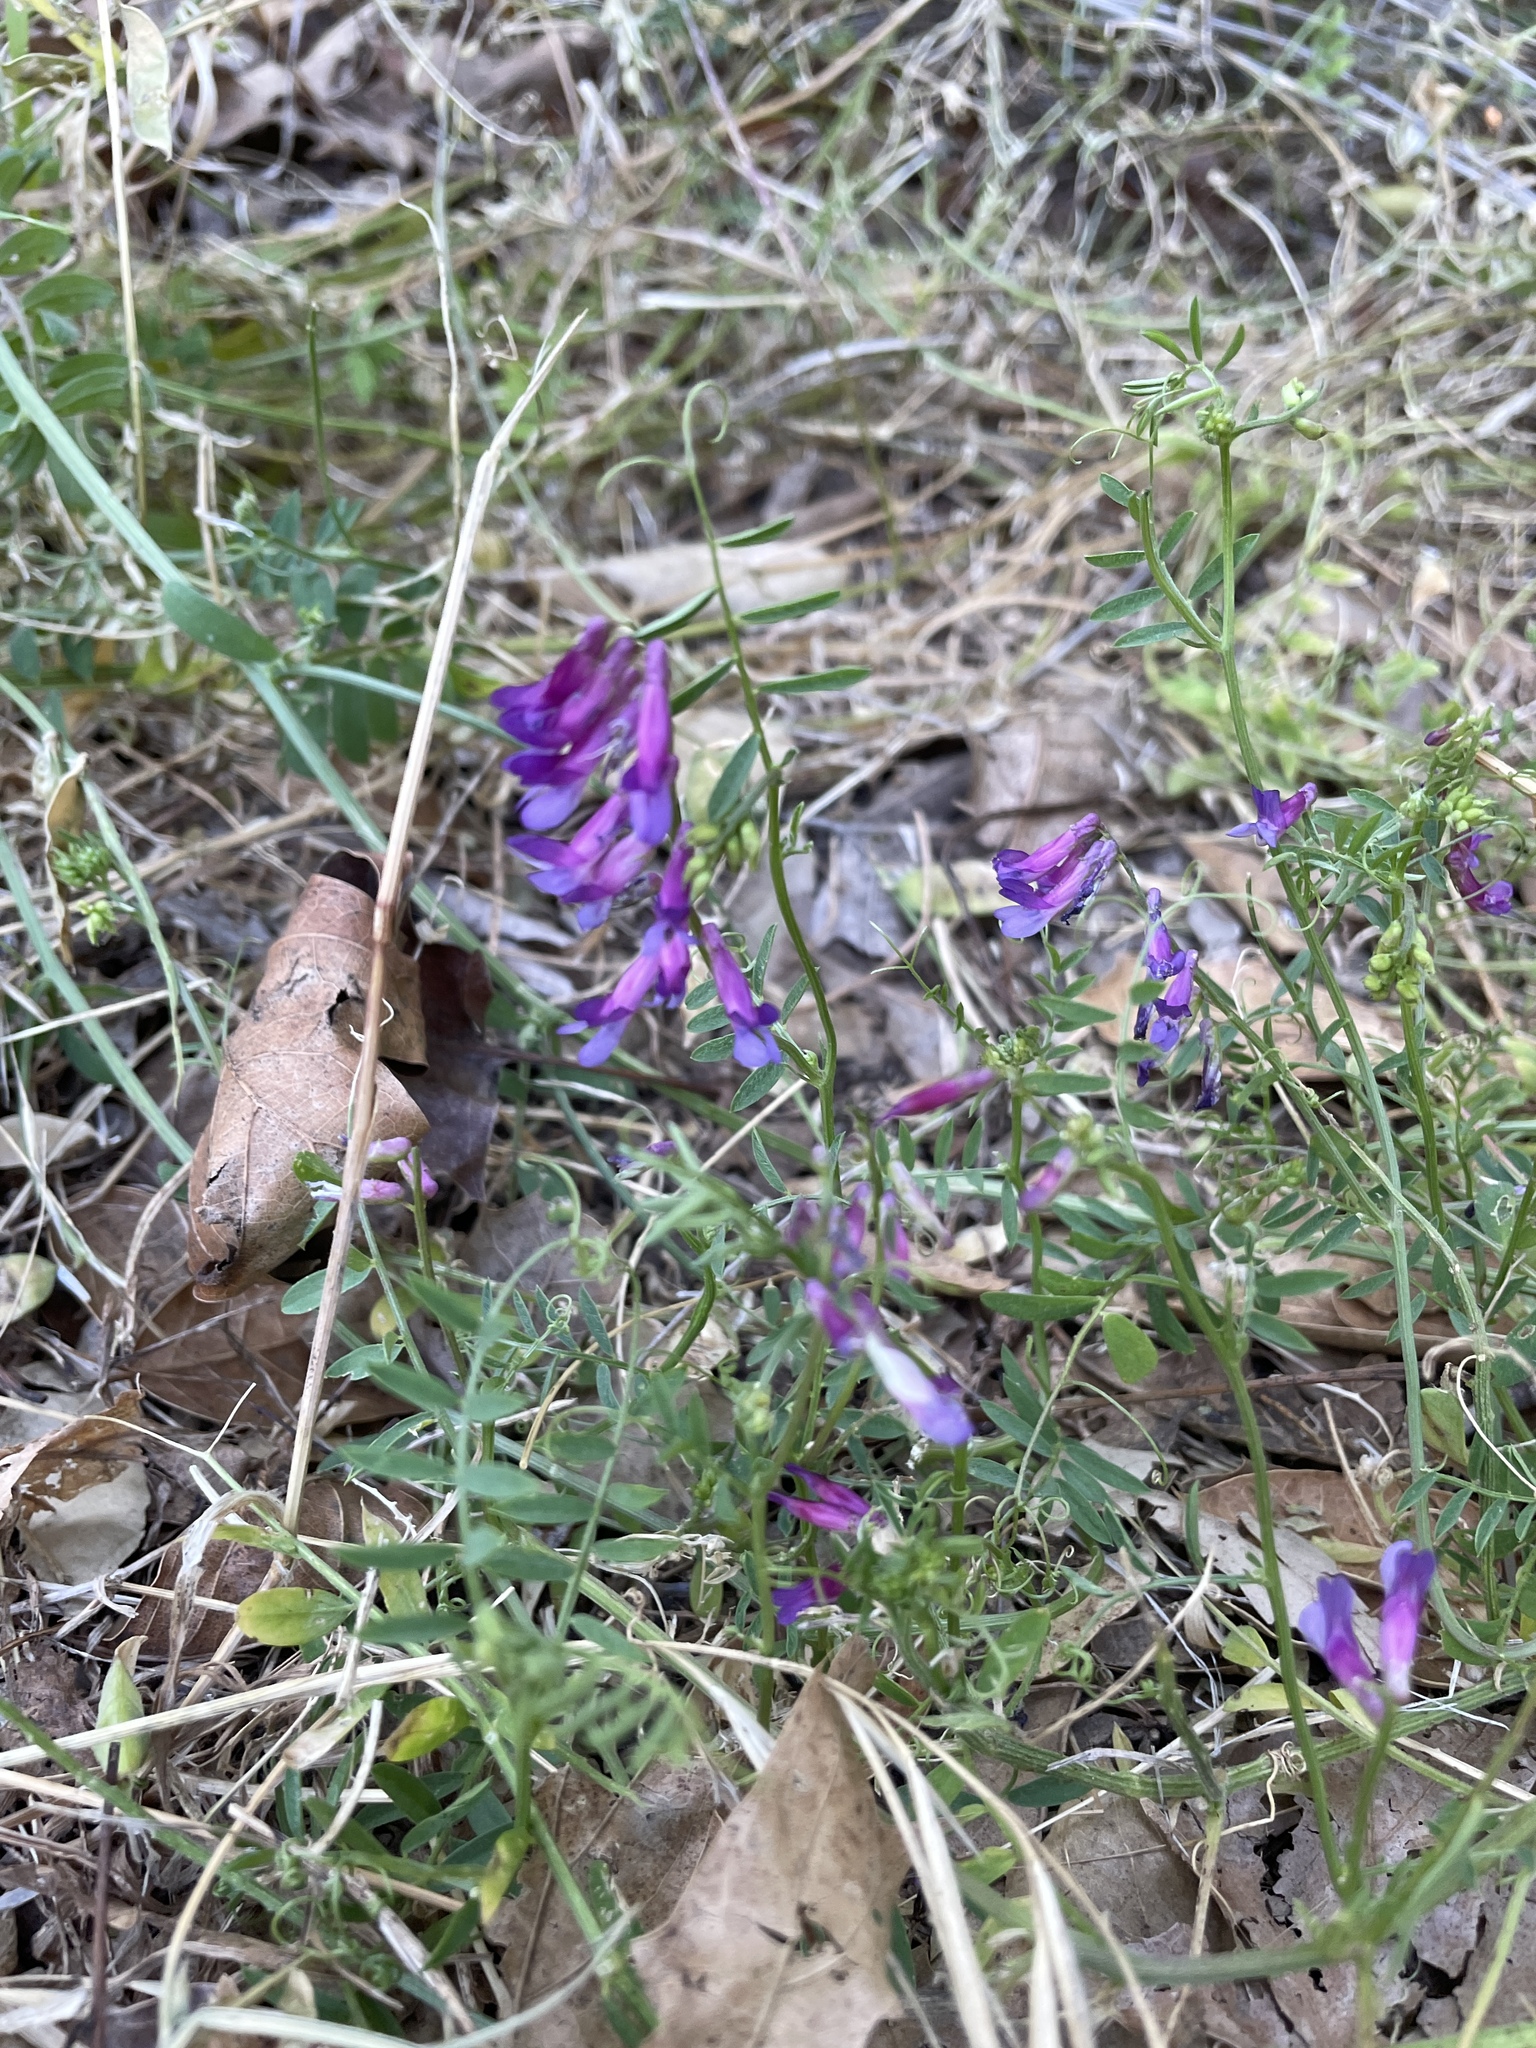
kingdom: Plantae
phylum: Tracheophyta
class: Magnoliopsida
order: Fabales
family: Fabaceae
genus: Vicia
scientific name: Vicia villosa
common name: Fodder vetch
